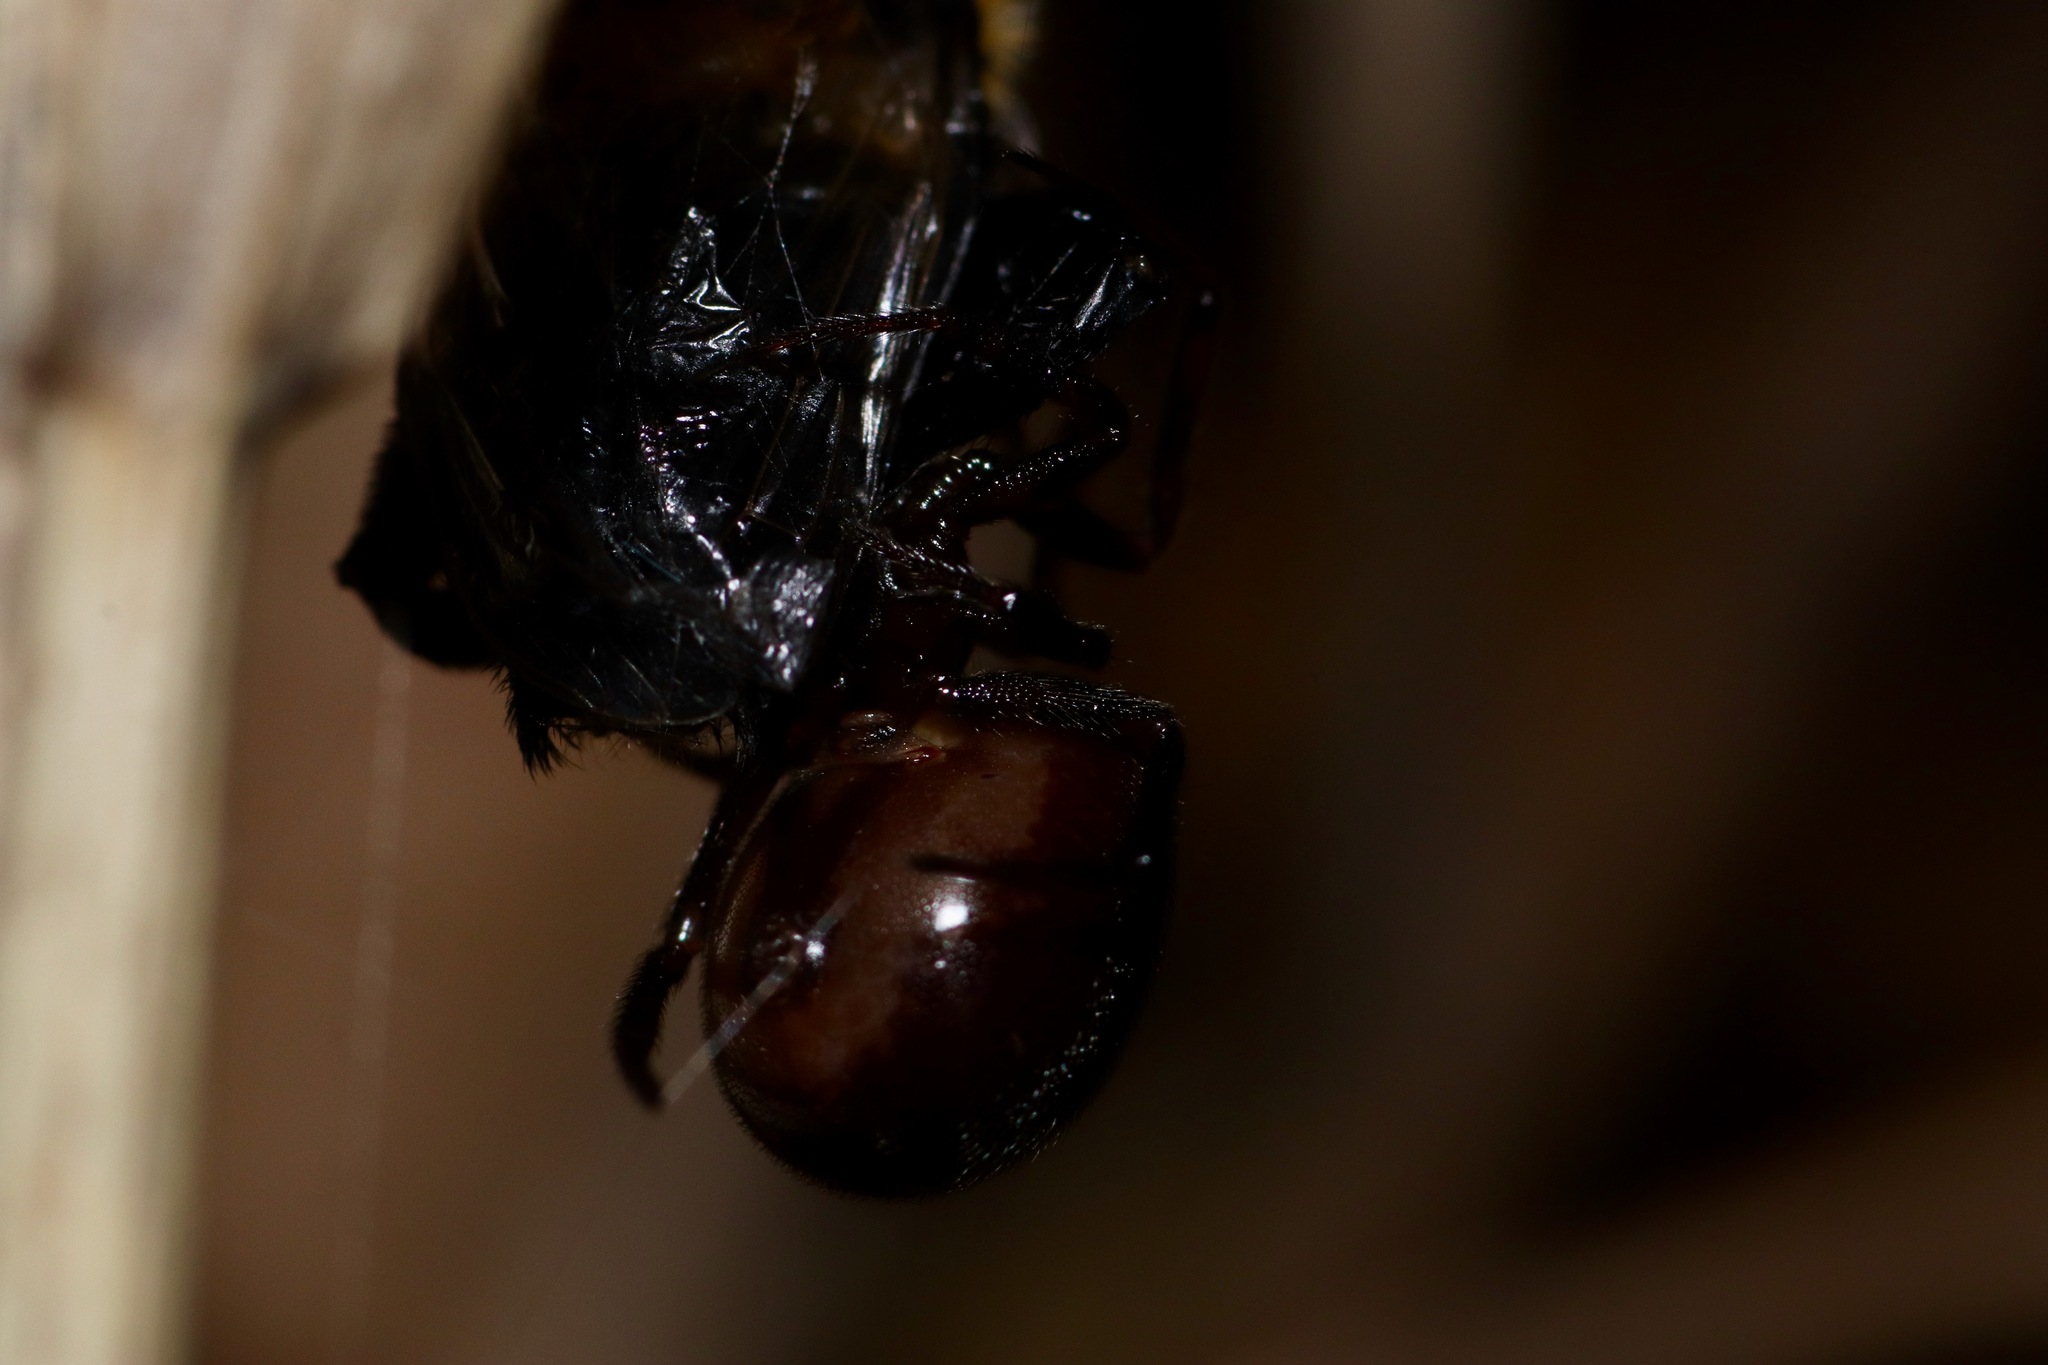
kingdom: Animalia
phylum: Arthropoda
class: Arachnida
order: Araneae
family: Theridiidae
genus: Steatoda
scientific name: Steatoda borealis
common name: Boreal combfoot
